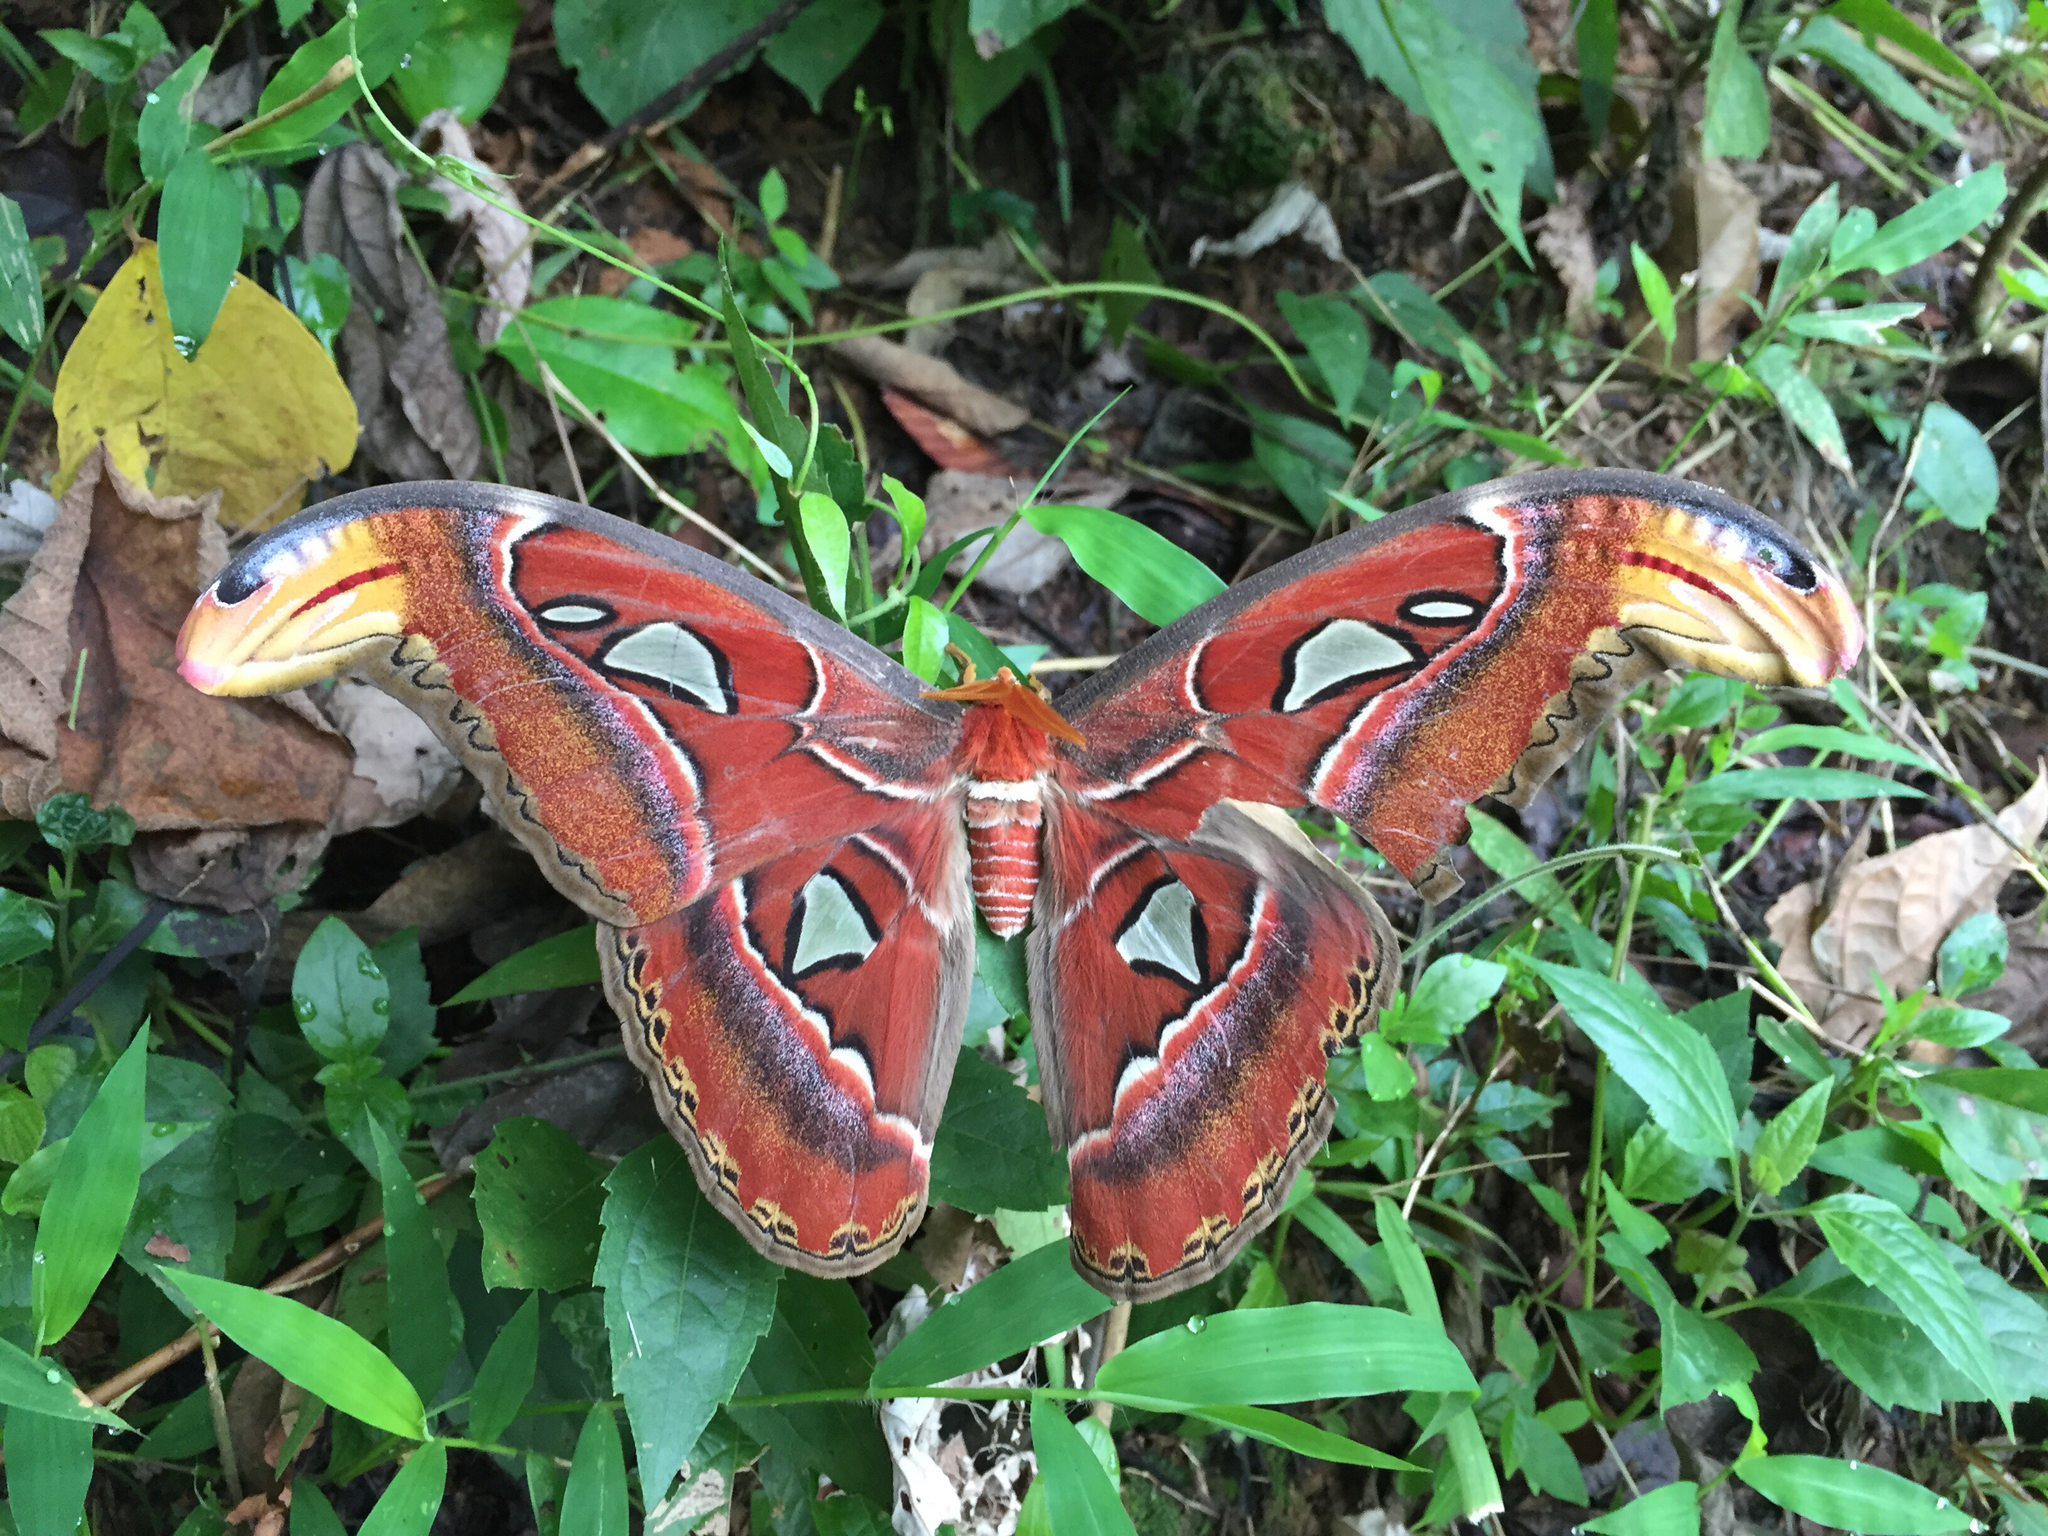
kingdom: Animalia
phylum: Arthropoda
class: Insecta
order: Lepidoptera
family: Saturniidae
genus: Attacus
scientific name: Attacus atlas
